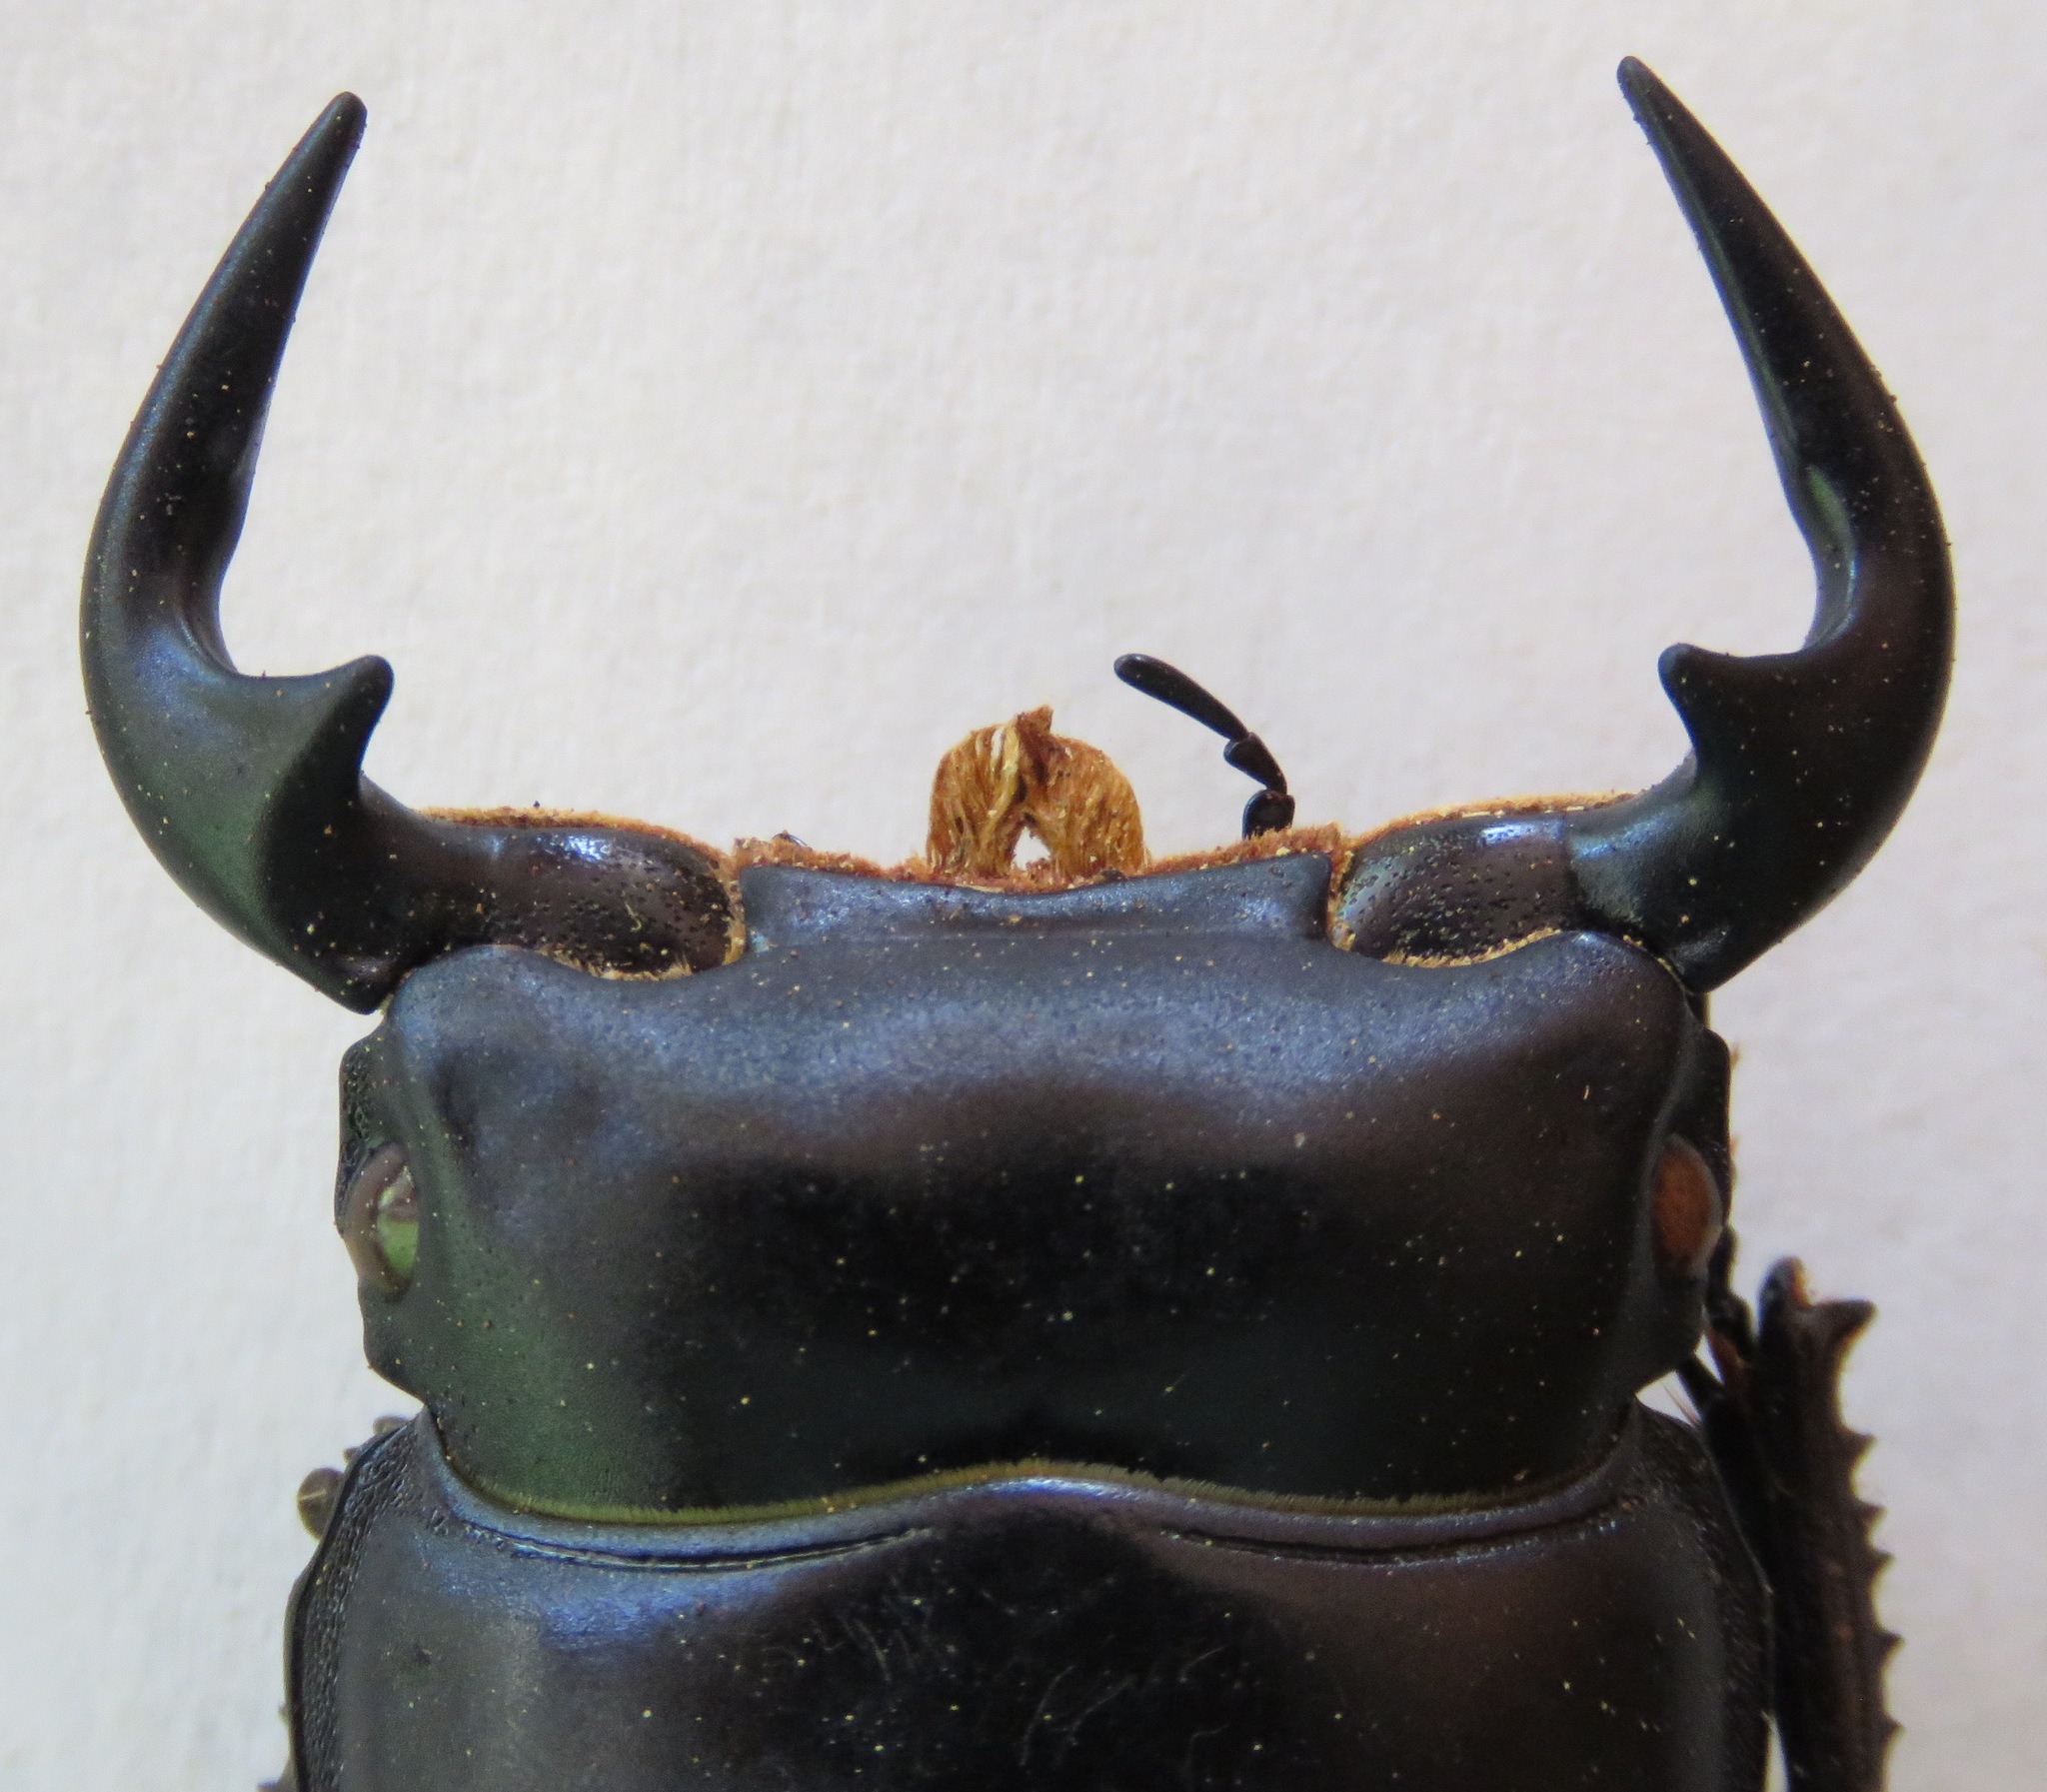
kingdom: Animalia
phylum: Arthropoda
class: Insecta
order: Coleoptera
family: Lucanidae
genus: Dorcus
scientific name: Dorcus antaeus
